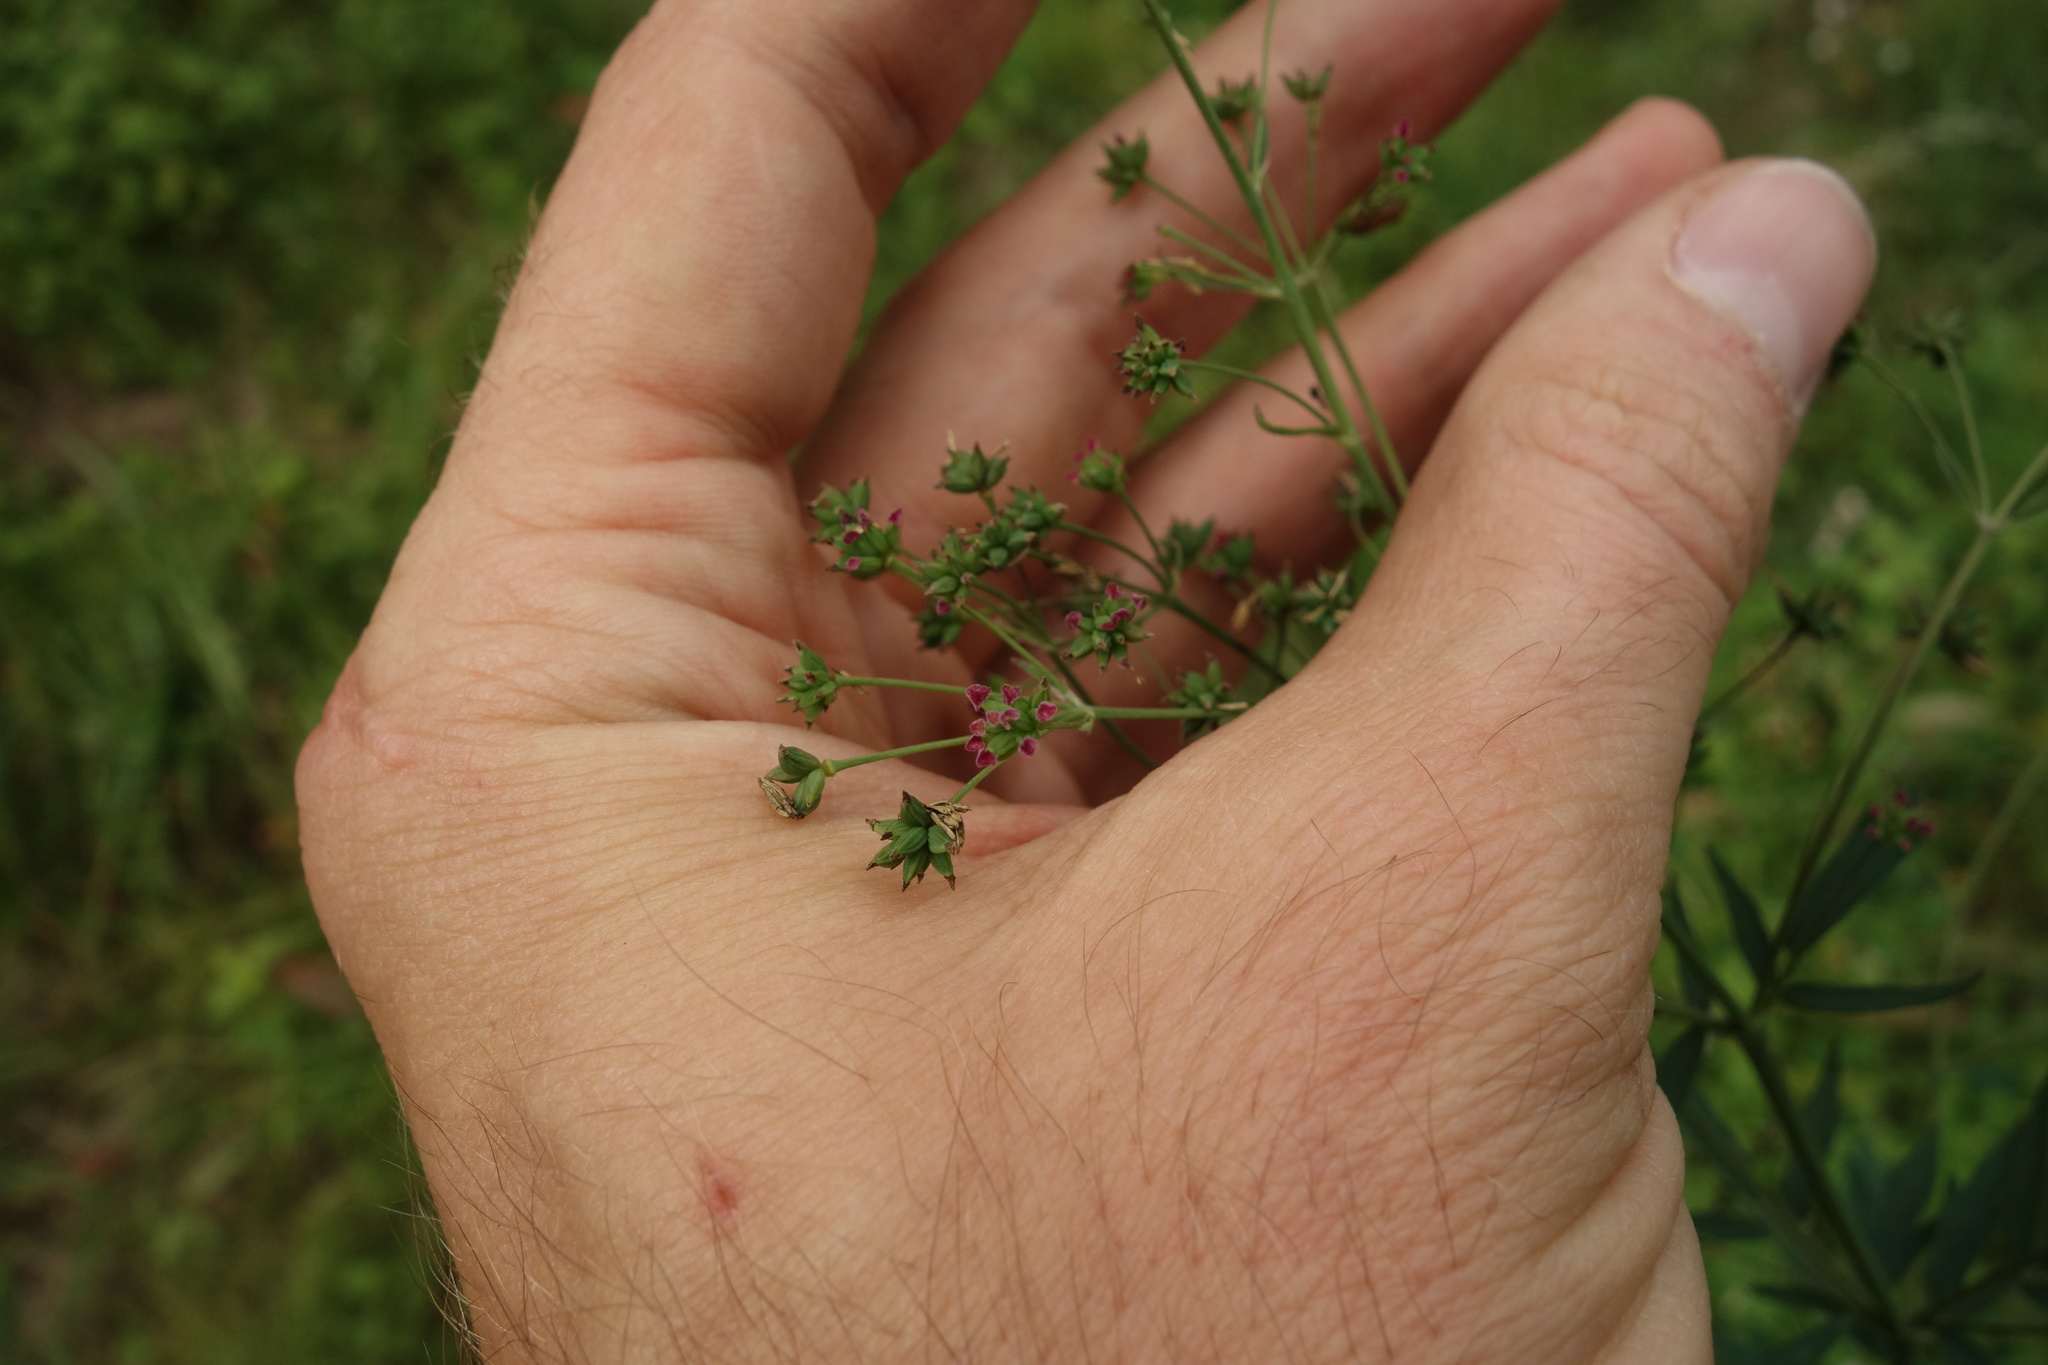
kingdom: Plantae
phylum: Tracheophyta
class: Magnoliopsida
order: Ranunculales
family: Ranunculaceae
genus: Thalictrum
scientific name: Thalictrum simplex
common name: Small meadow-rue
